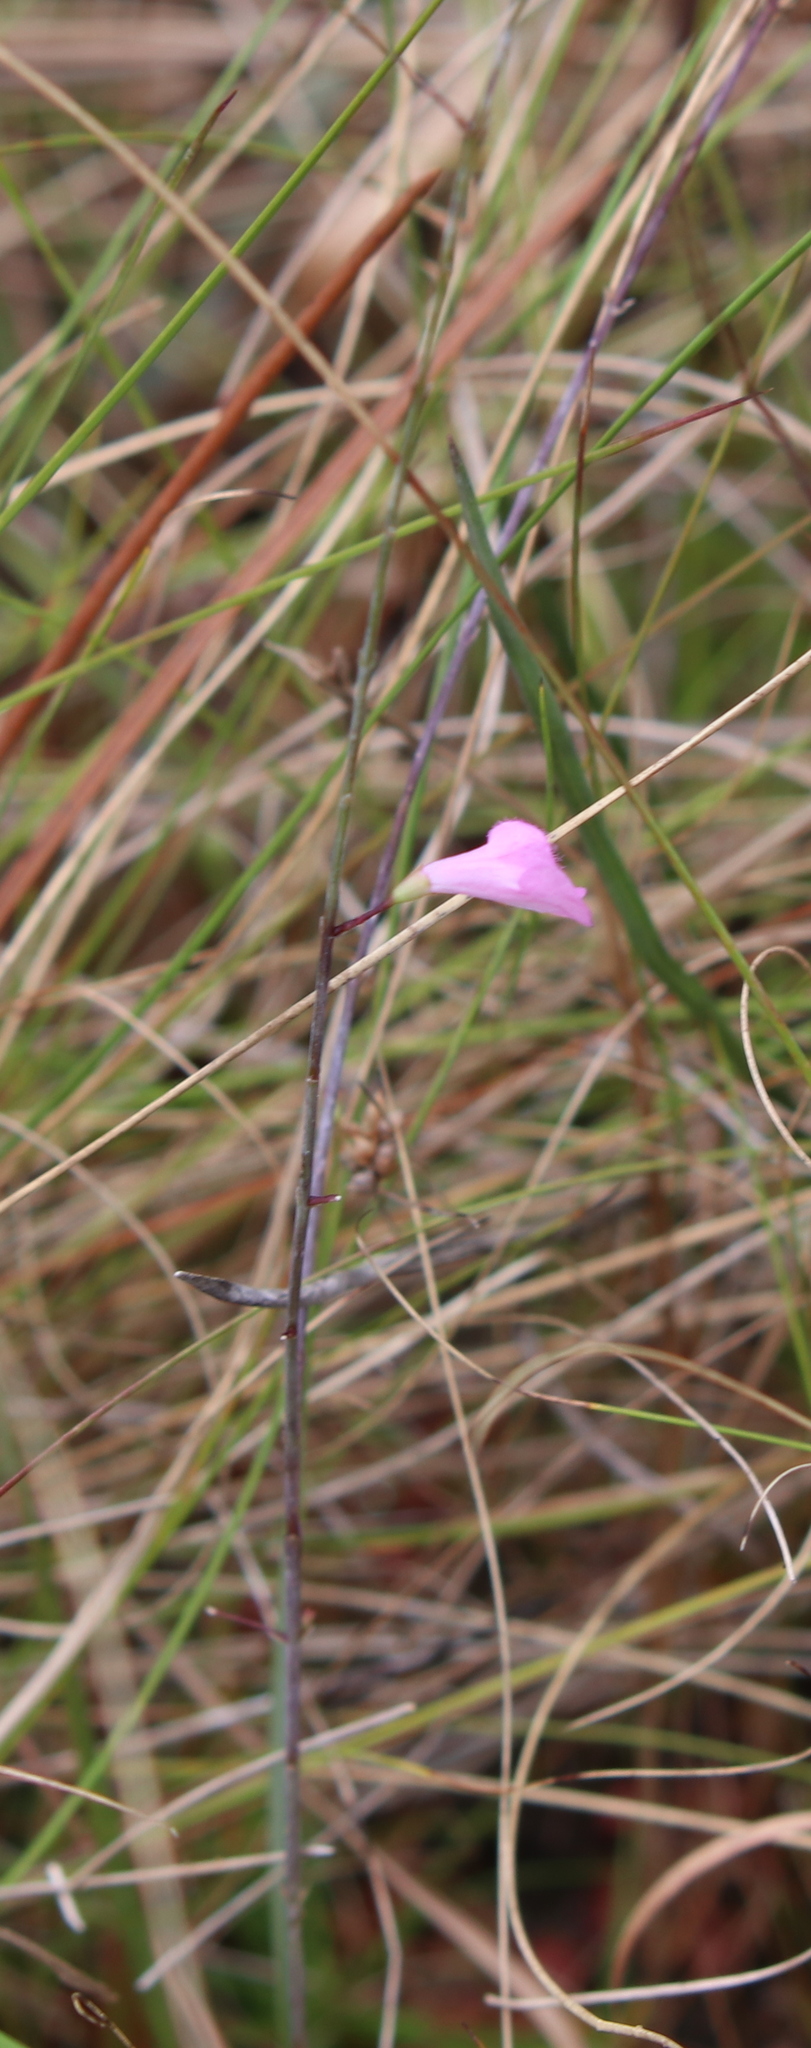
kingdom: Plantae
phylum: Tracheophyta
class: Magnoliopsida
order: Lamiales
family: Orobanchaceae
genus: Agalinis
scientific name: Agalinis filicaulis
